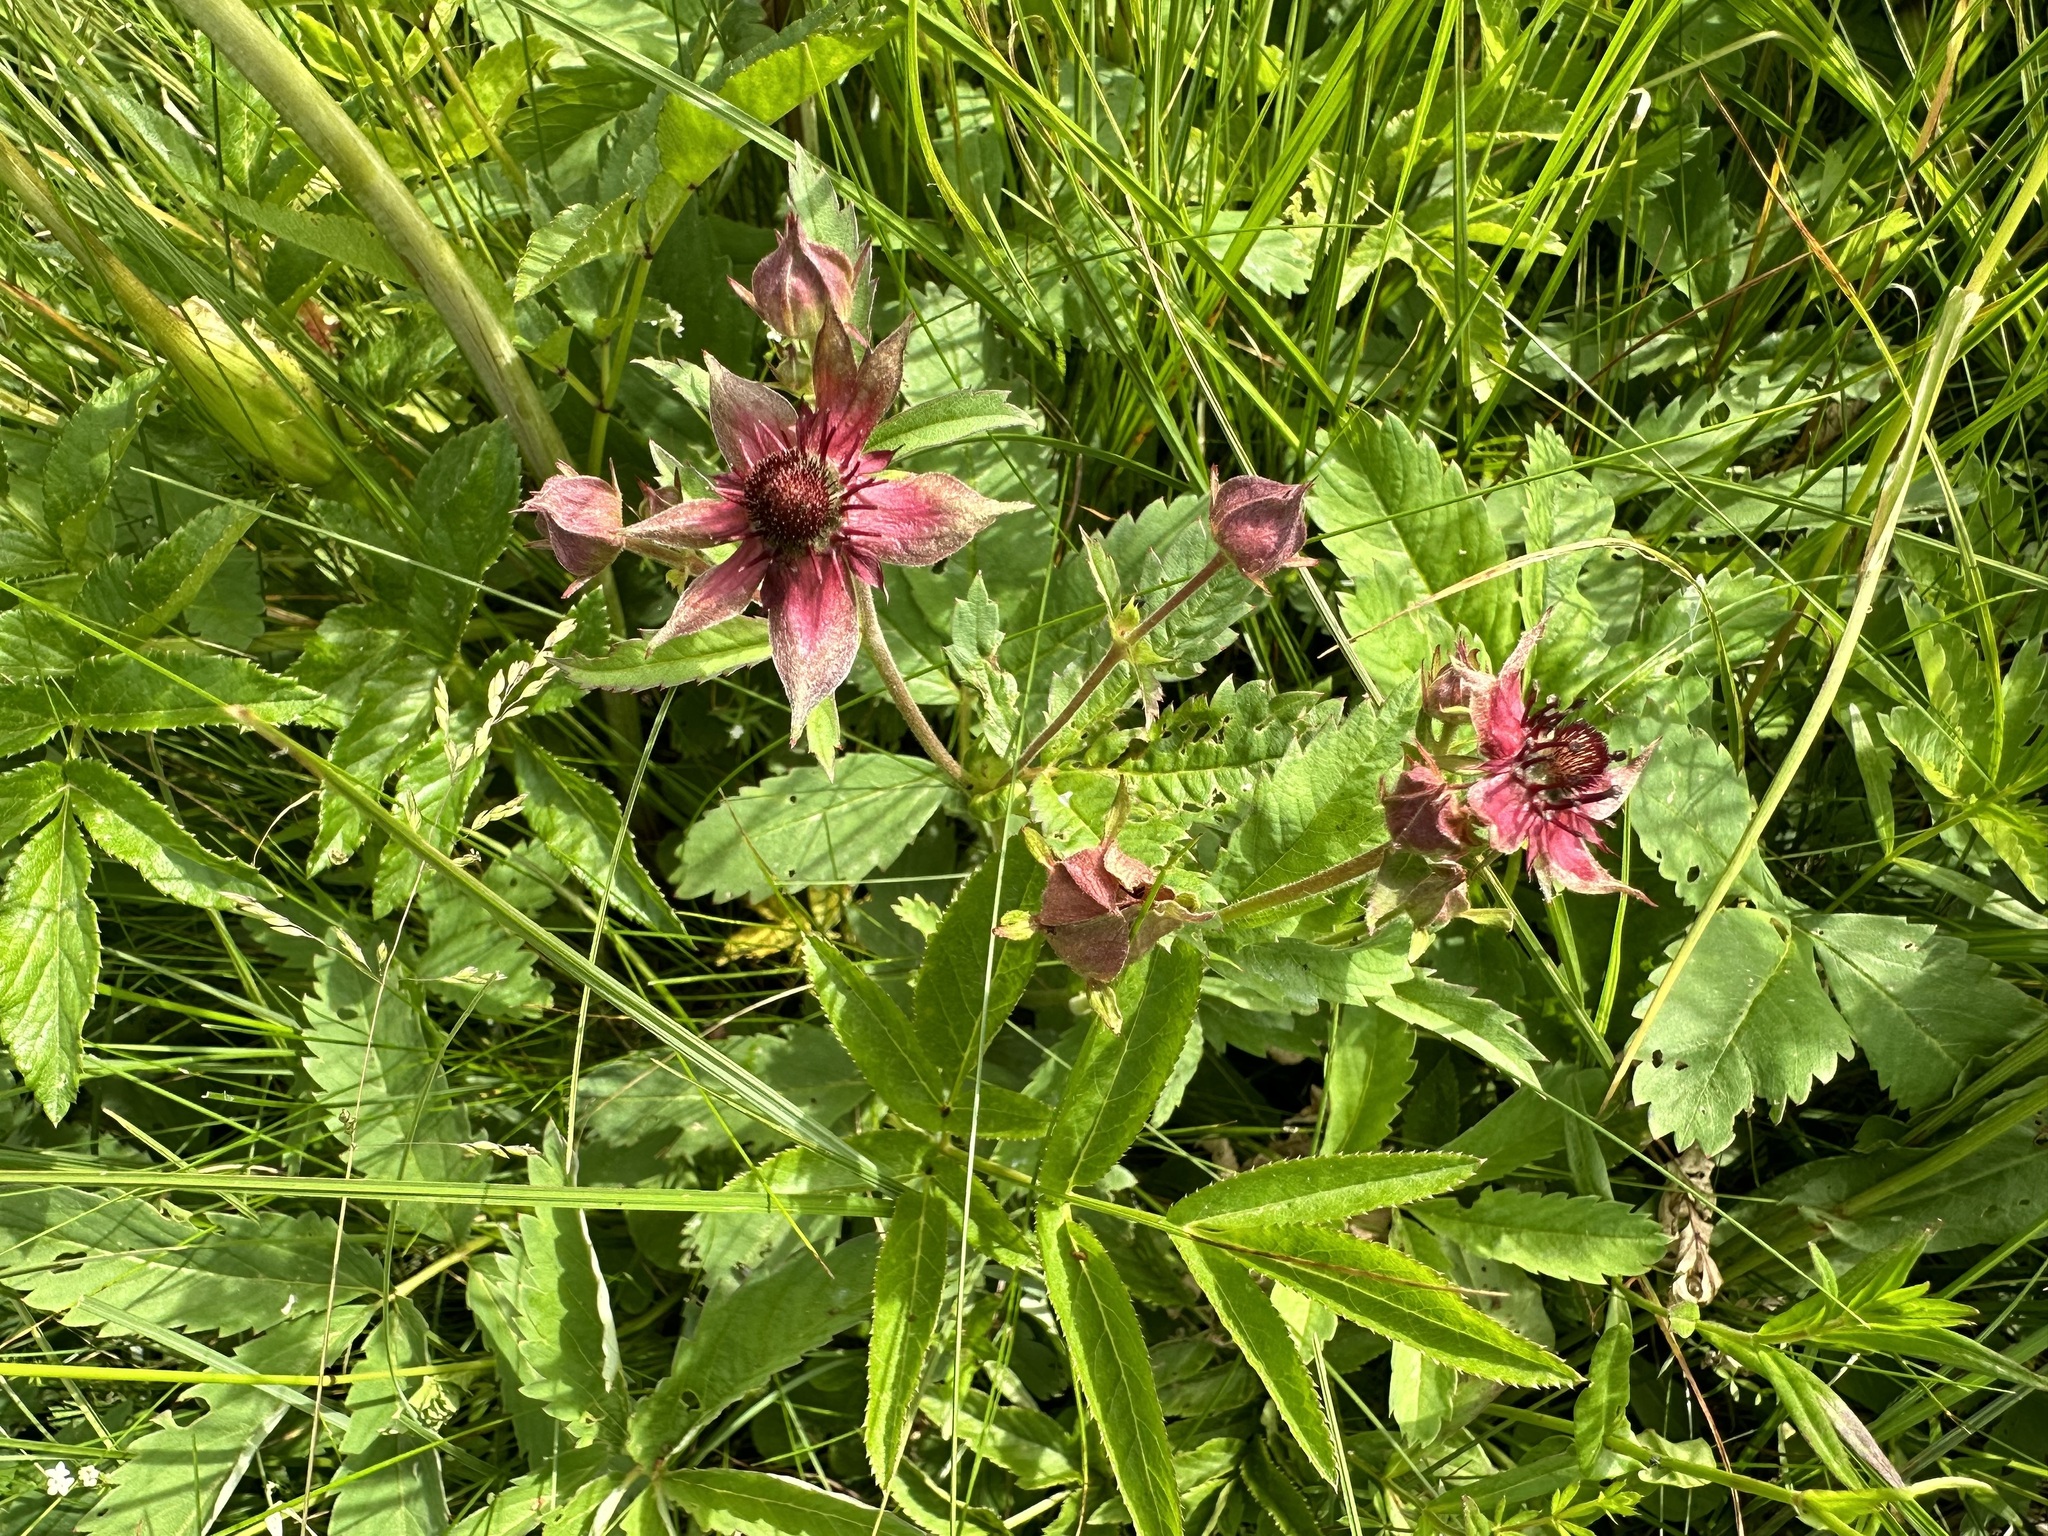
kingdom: Plantae
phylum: Tracheophyta
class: Magnoliopsida
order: Rosales
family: Rosaceae
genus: Comarum
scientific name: Comarum palustre
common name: Marsh cinquefoil
